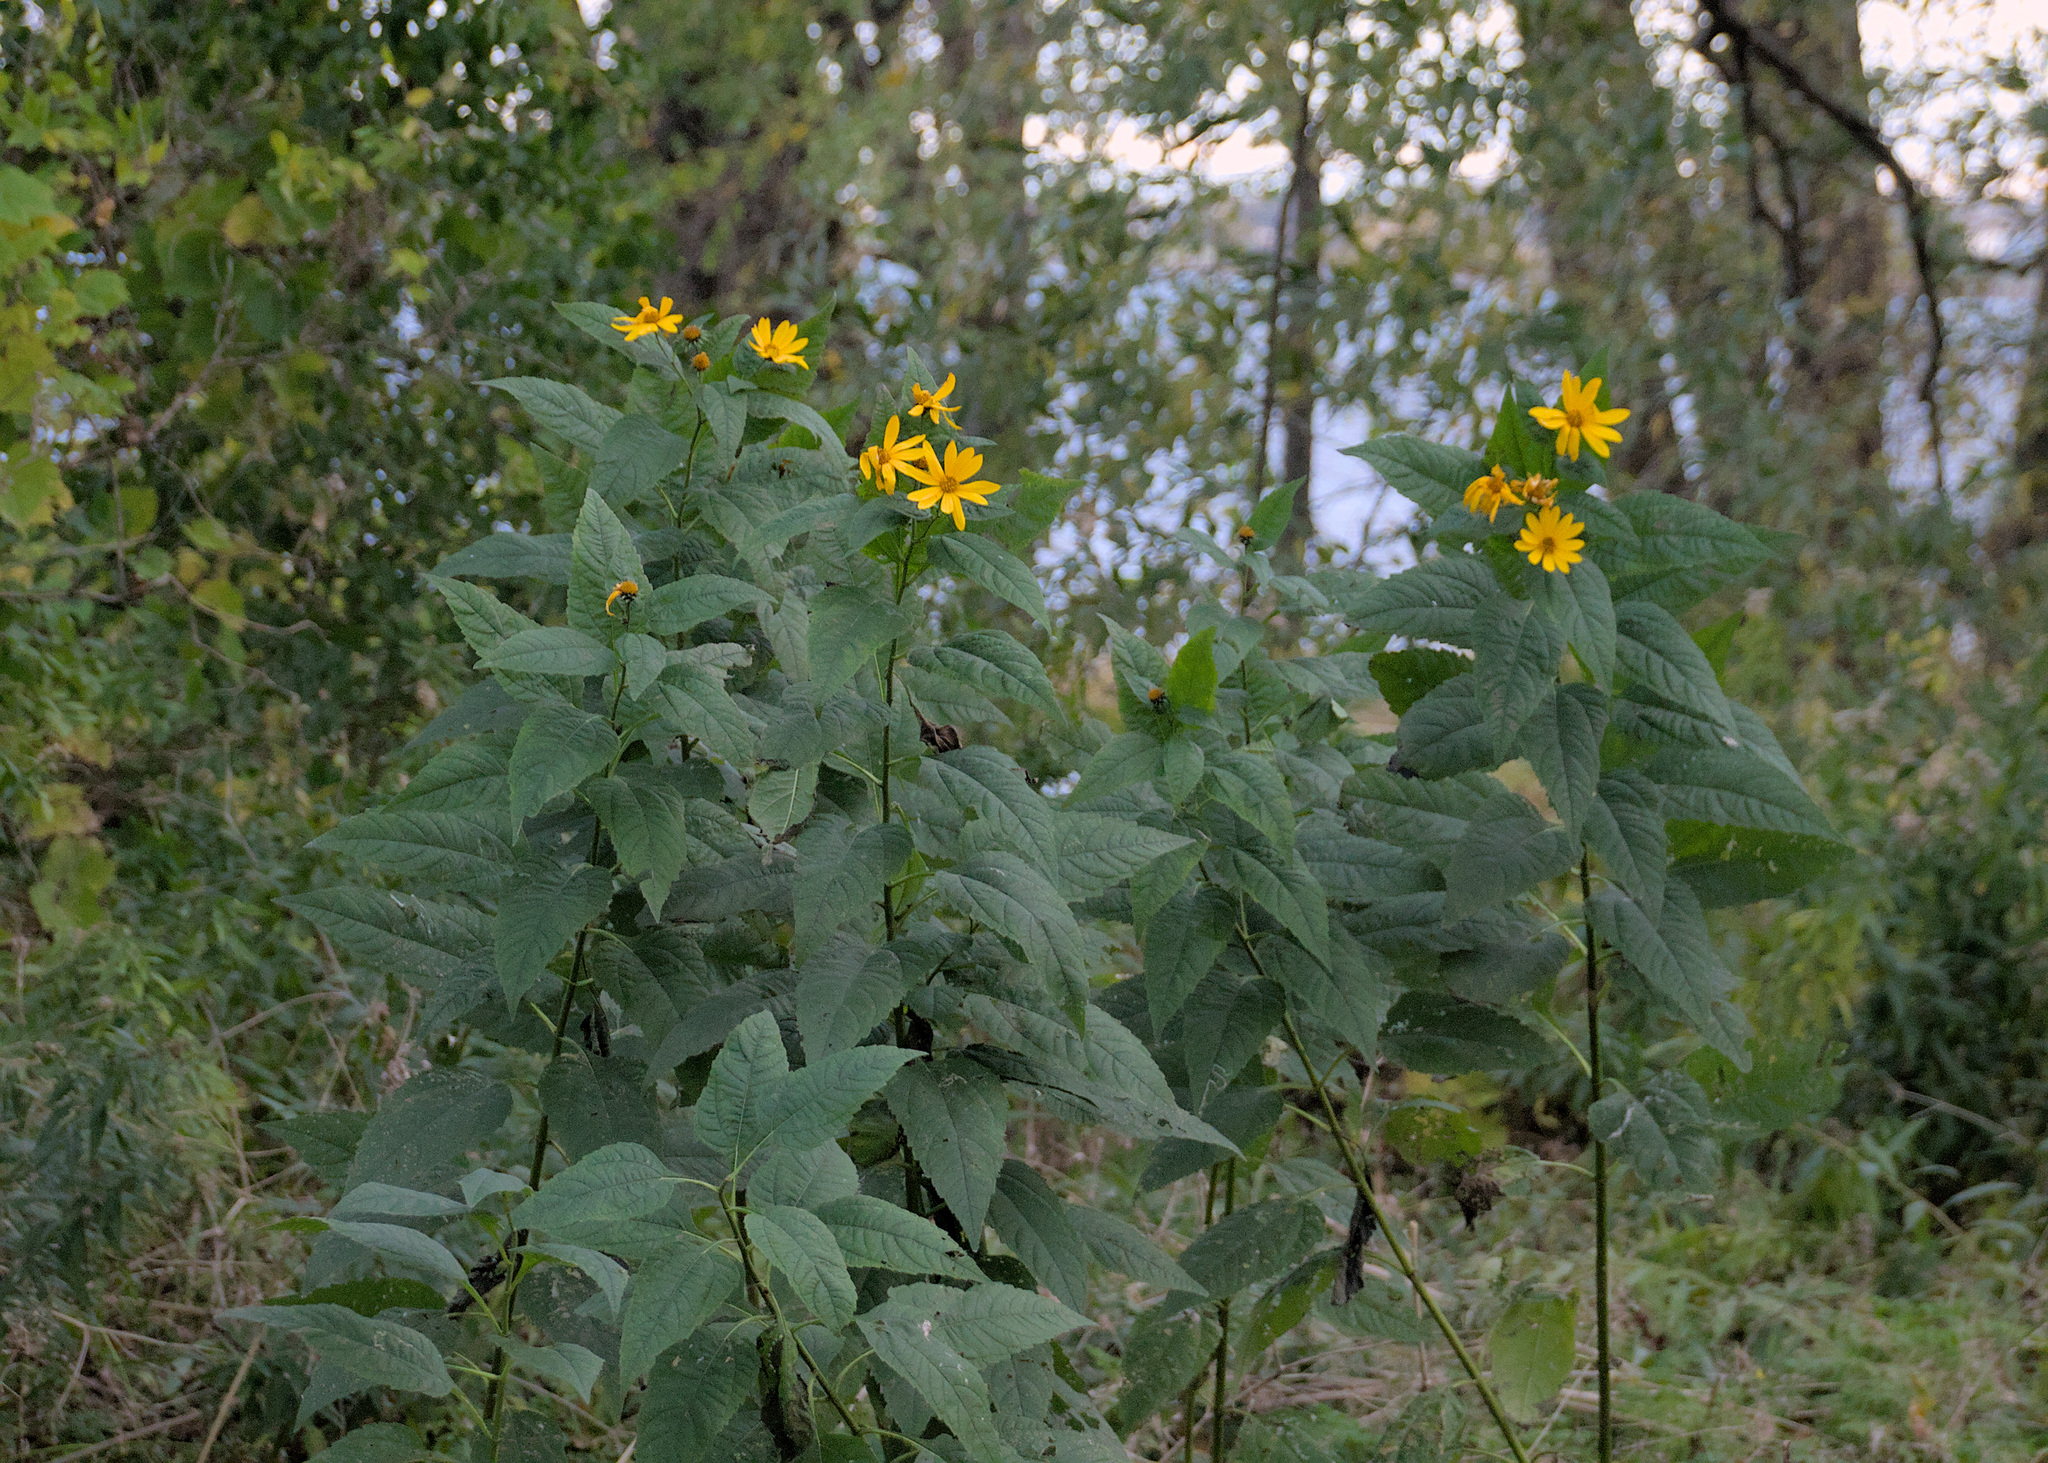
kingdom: Plantae
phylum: Tracheophyta
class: Magnoliopsida
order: Asterales
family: Asteraceae
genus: Helianthus
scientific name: Helianthus tuberosus
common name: Jerusalem artichoke
